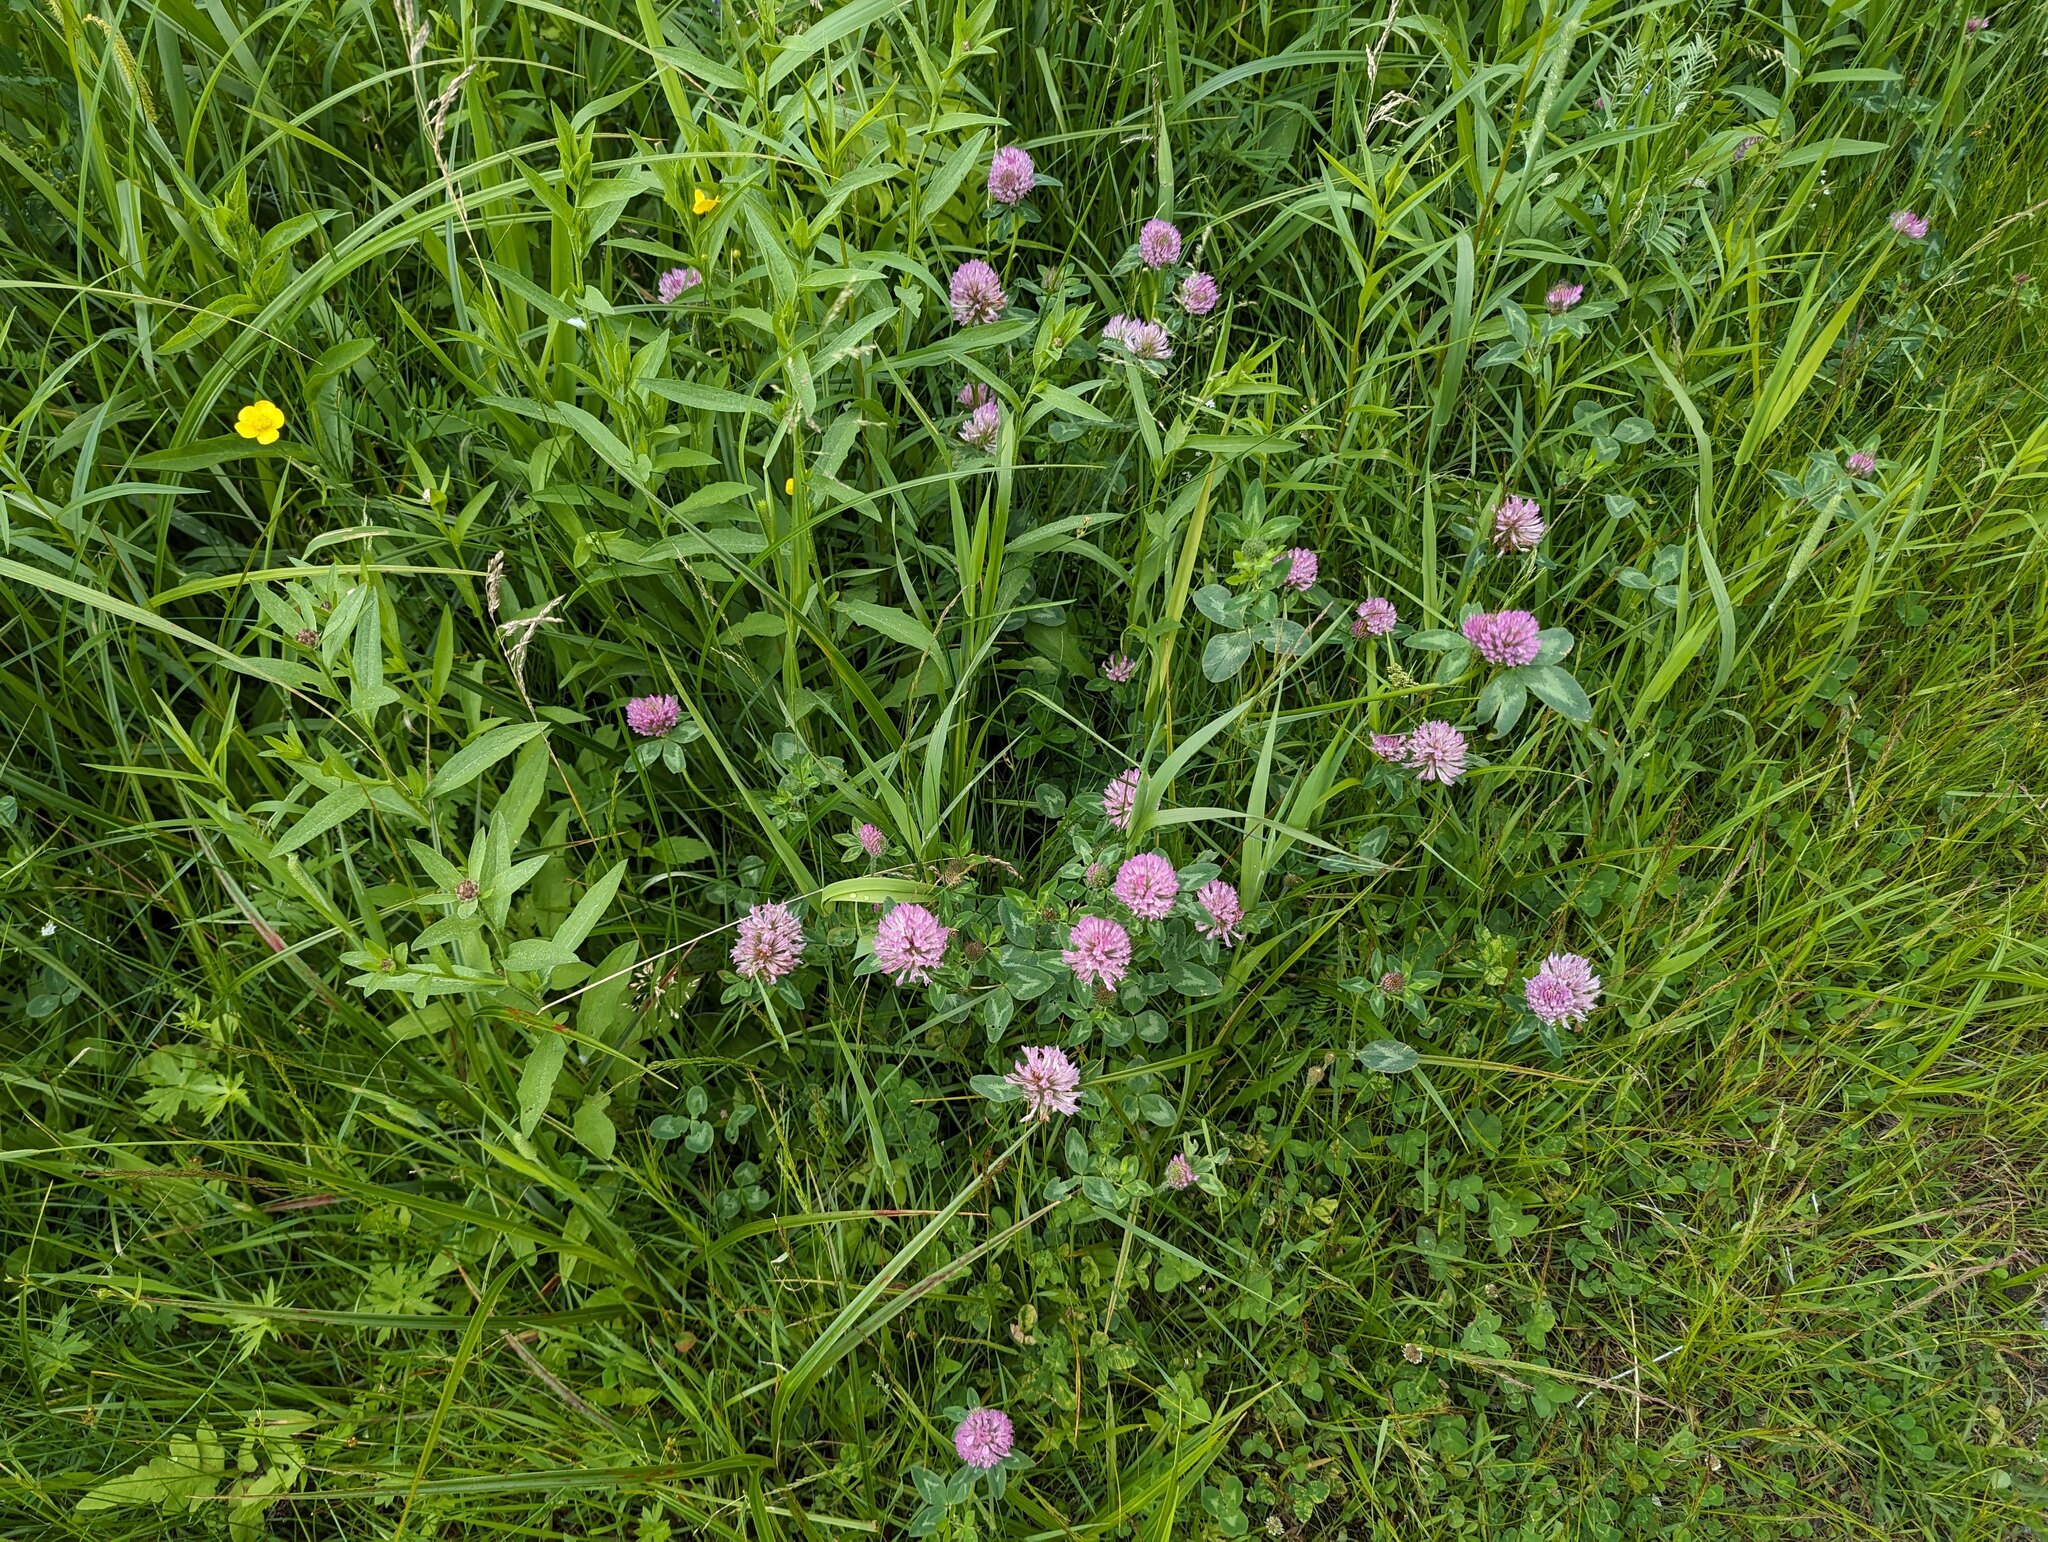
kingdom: Plantae
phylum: Tracheophyta
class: Magnoliopsida
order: Fabales
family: Fabaceae
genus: Trifolium
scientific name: Trifolium pratense
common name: Red clover
